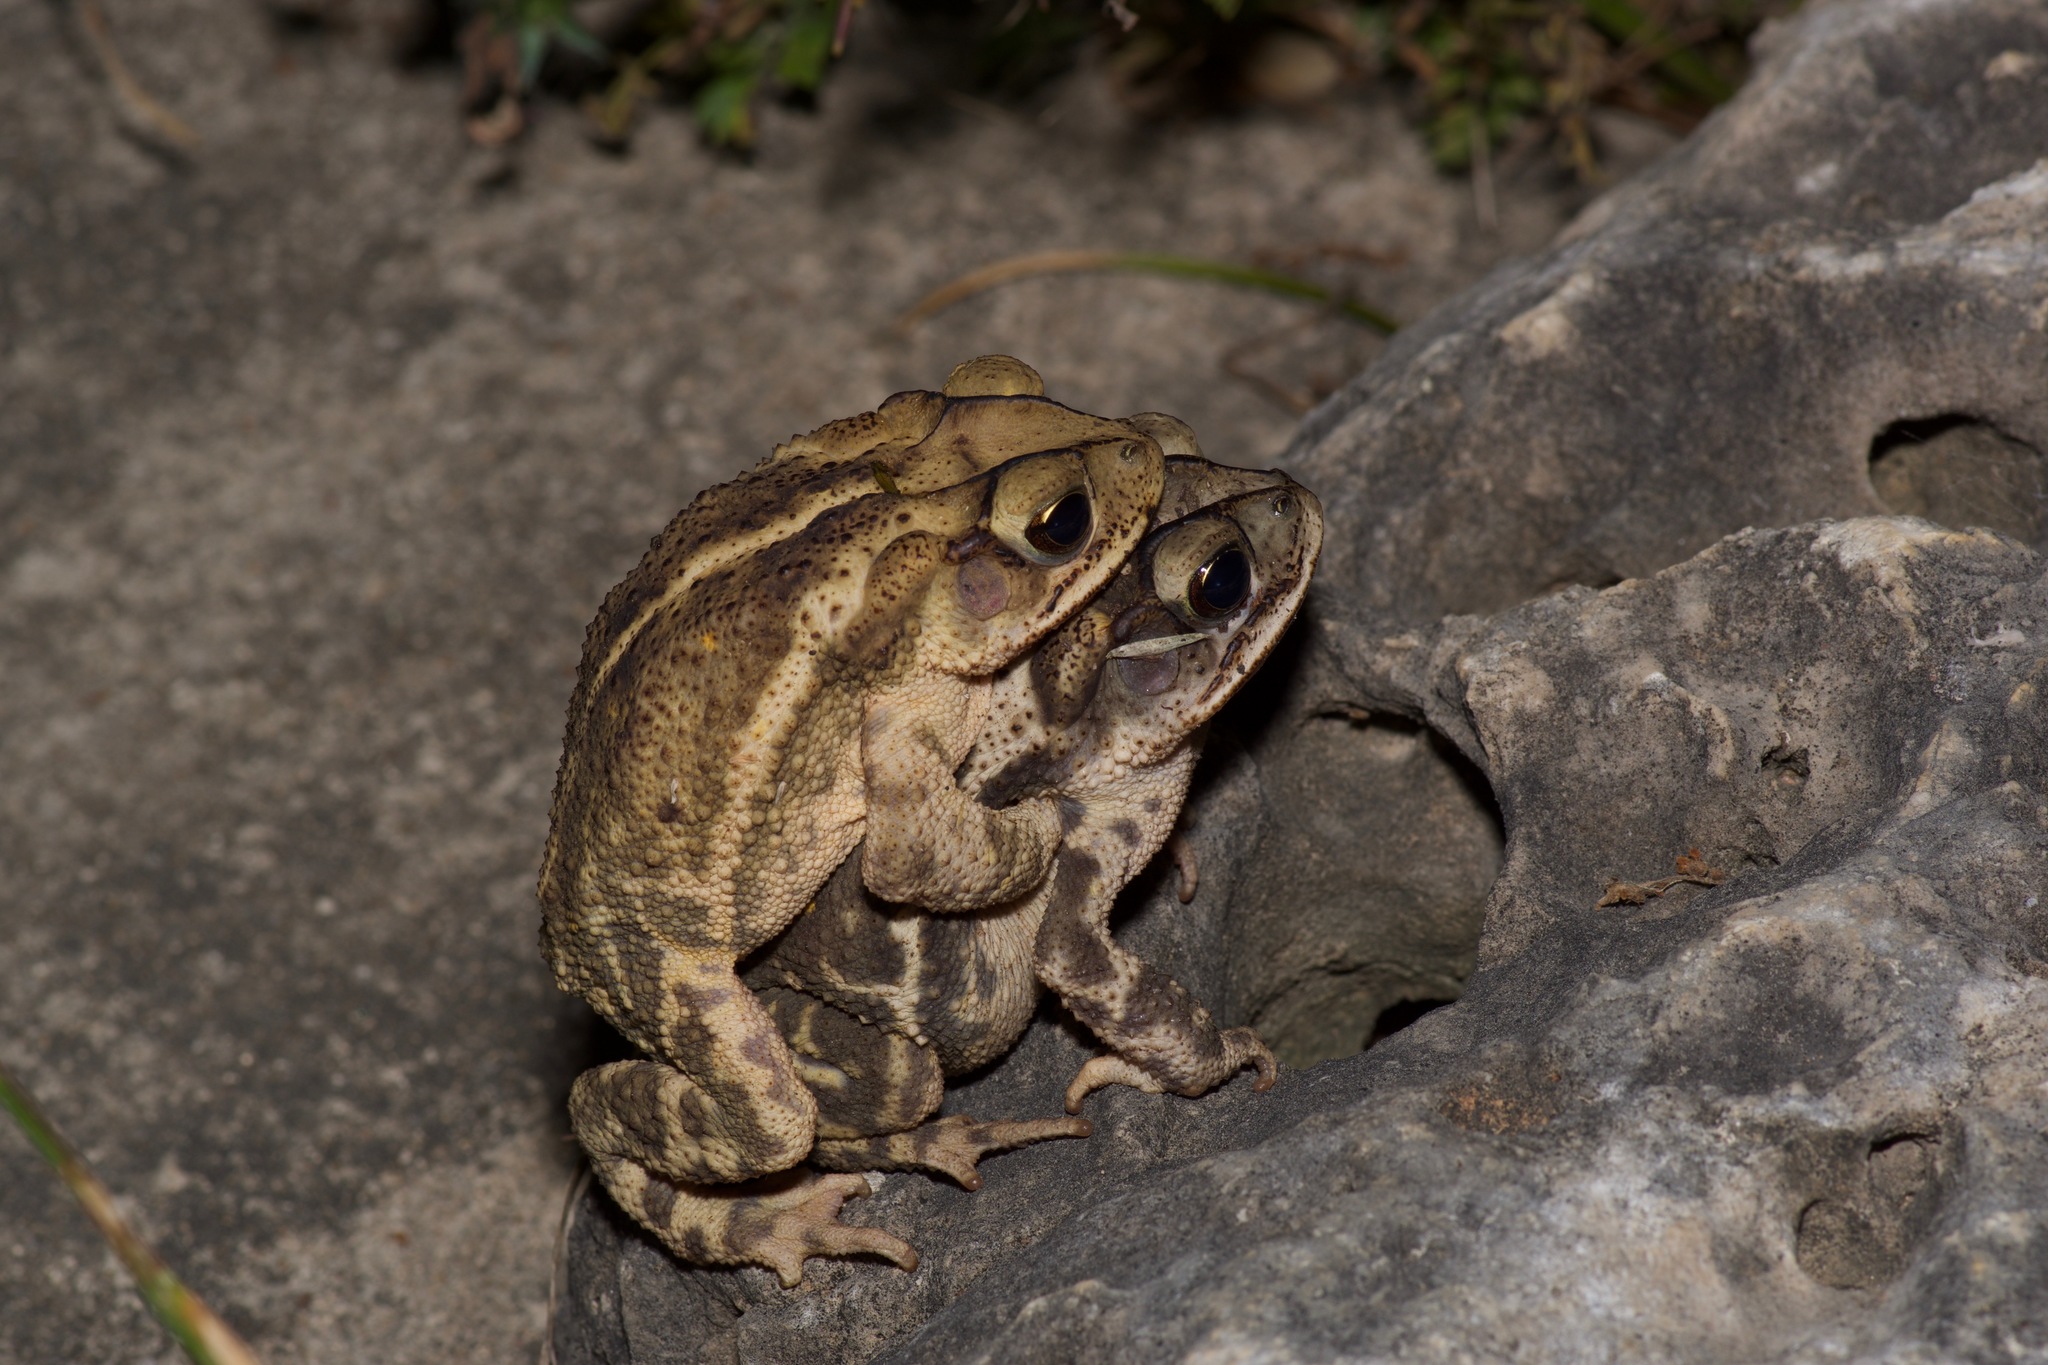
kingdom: Animalia
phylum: Chordata
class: Amphibia
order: Anura
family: Bufonidae
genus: Incilius
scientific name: Incilius nebulifer
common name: Gulf coast toad
